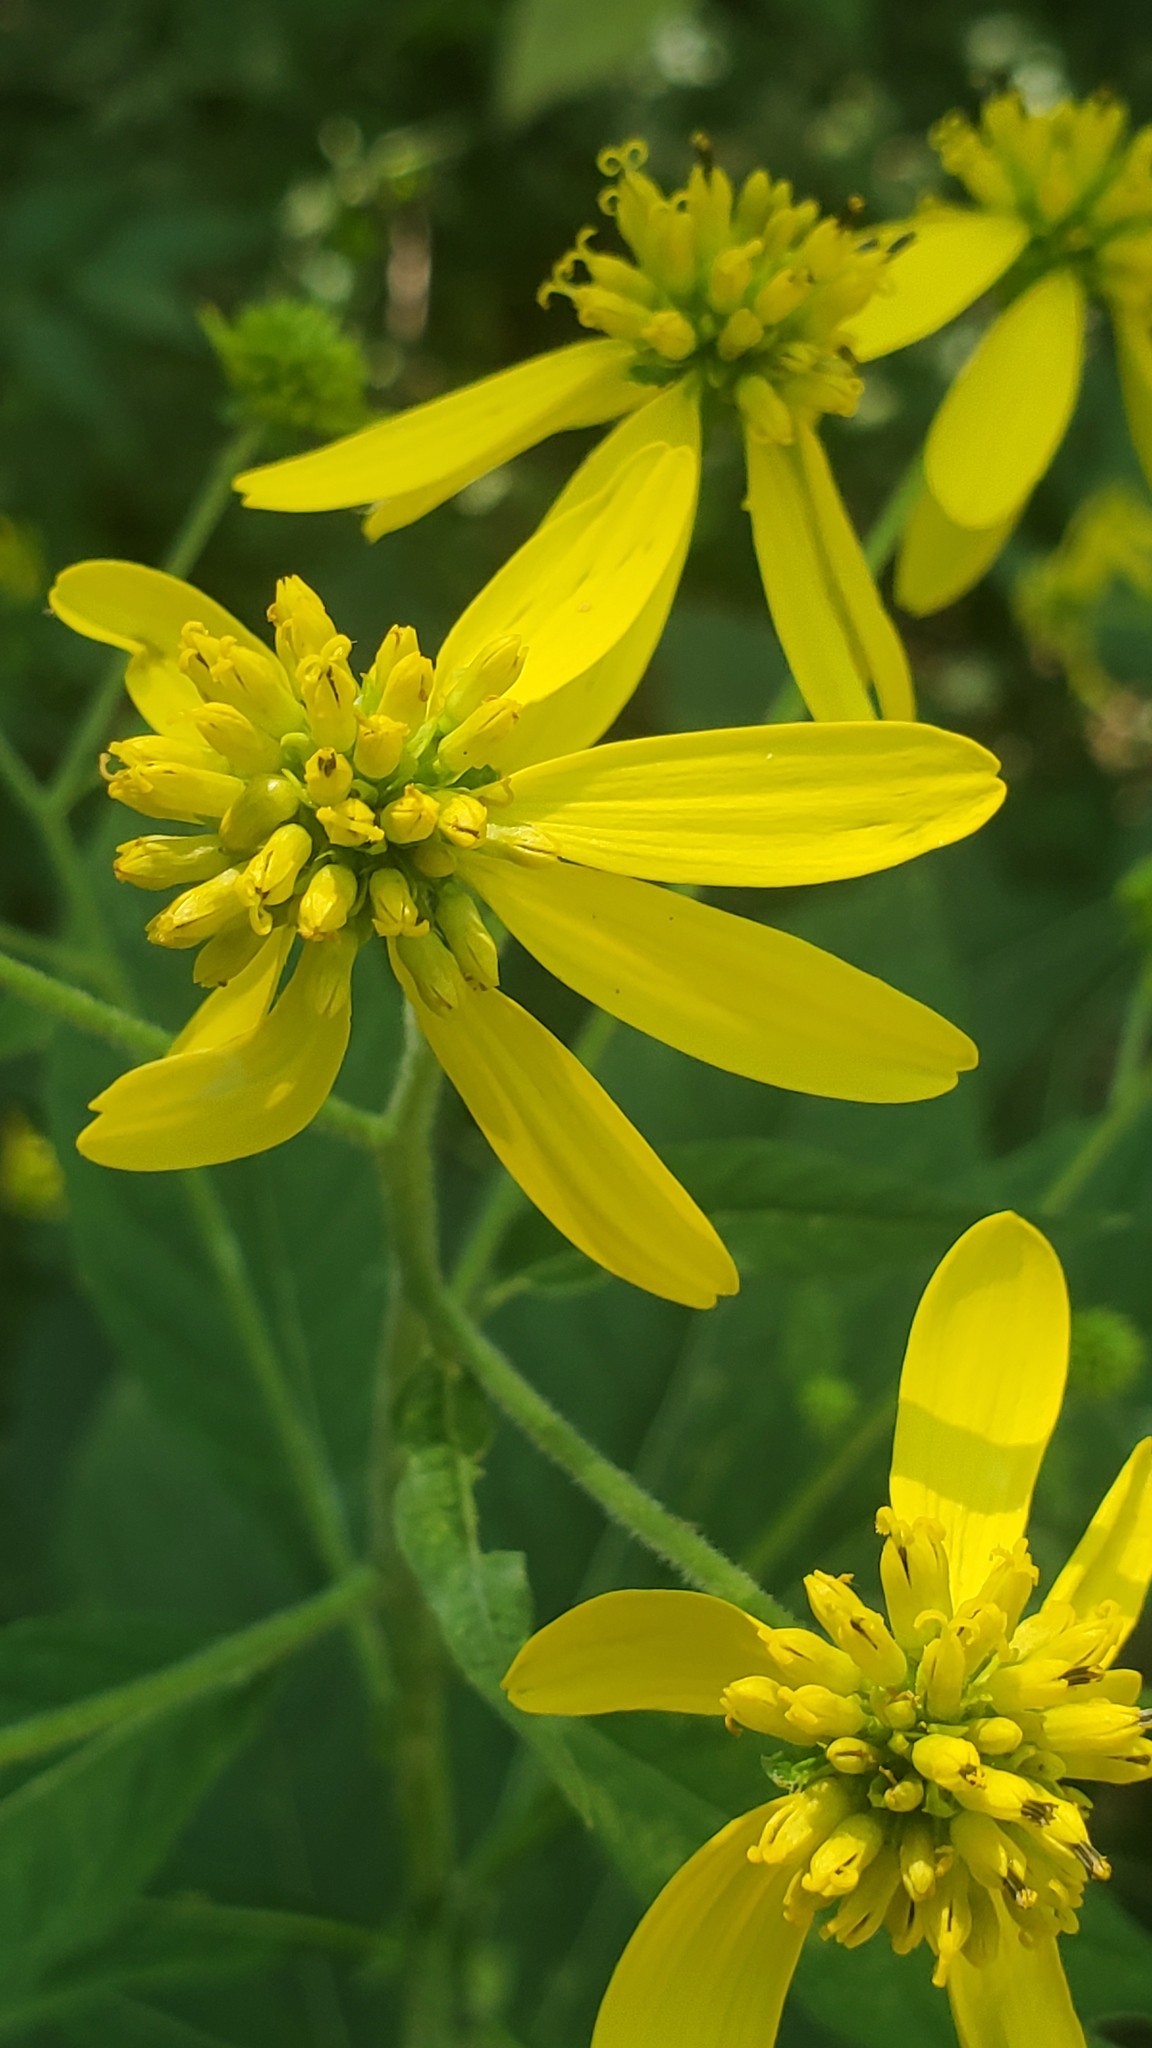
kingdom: Plantae
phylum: Tracheophyta
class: Magnoliopsida
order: Asterales
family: Asteraceae
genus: Verbesina
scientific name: Verbesina alternifolia
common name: Wingstem
